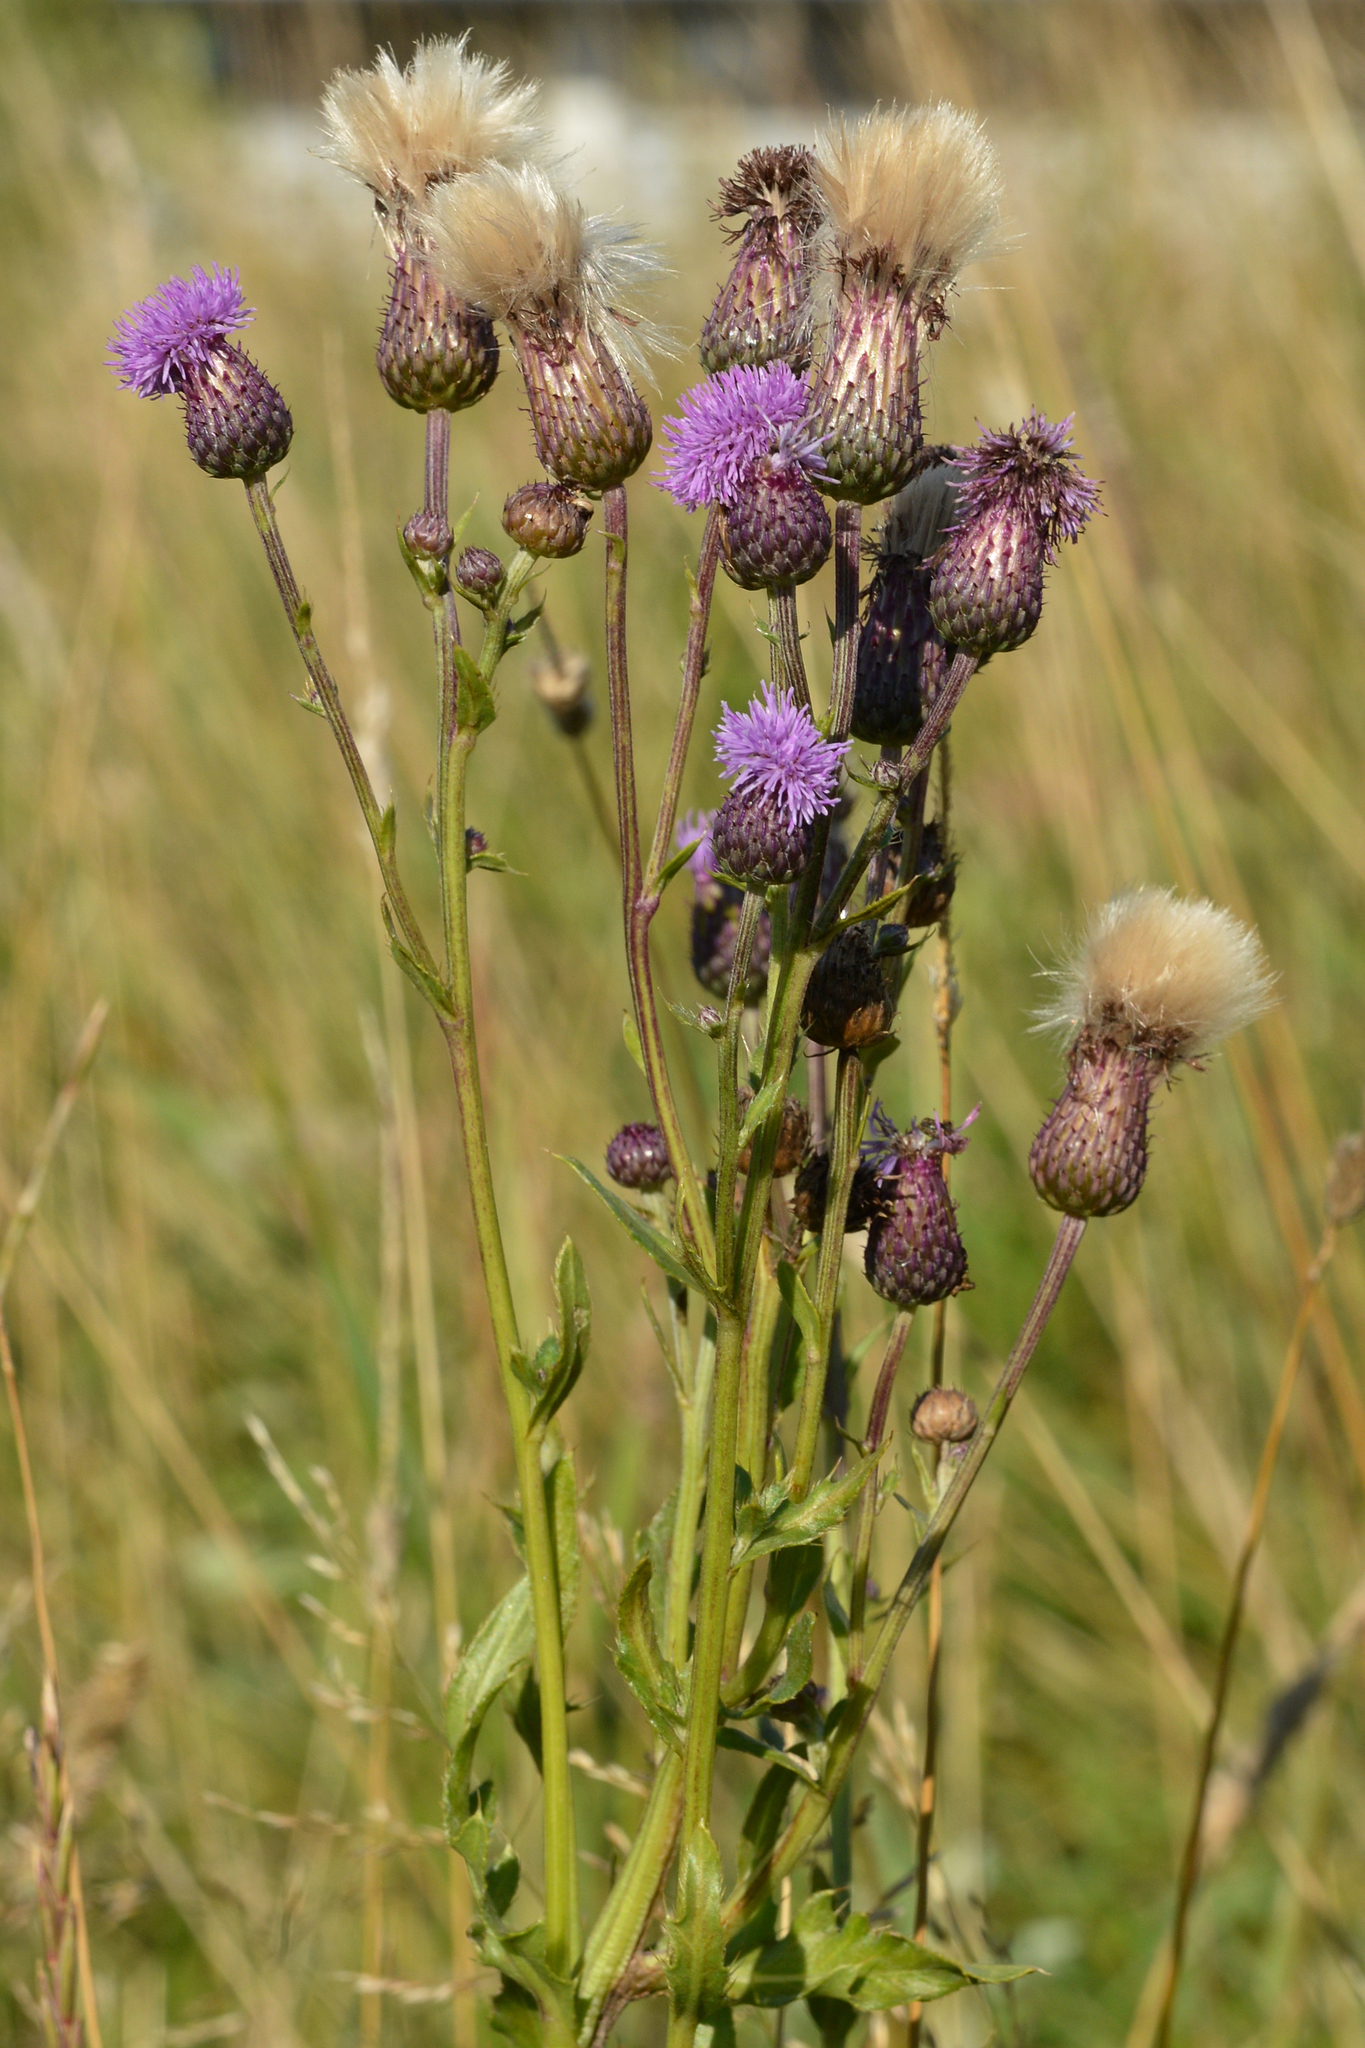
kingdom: Plantae
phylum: Tracheophyta
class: Magnoliopsida
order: Asterales
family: Asteraceae
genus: Cirsium
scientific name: Cirsium arvense
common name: Creeping thistle
